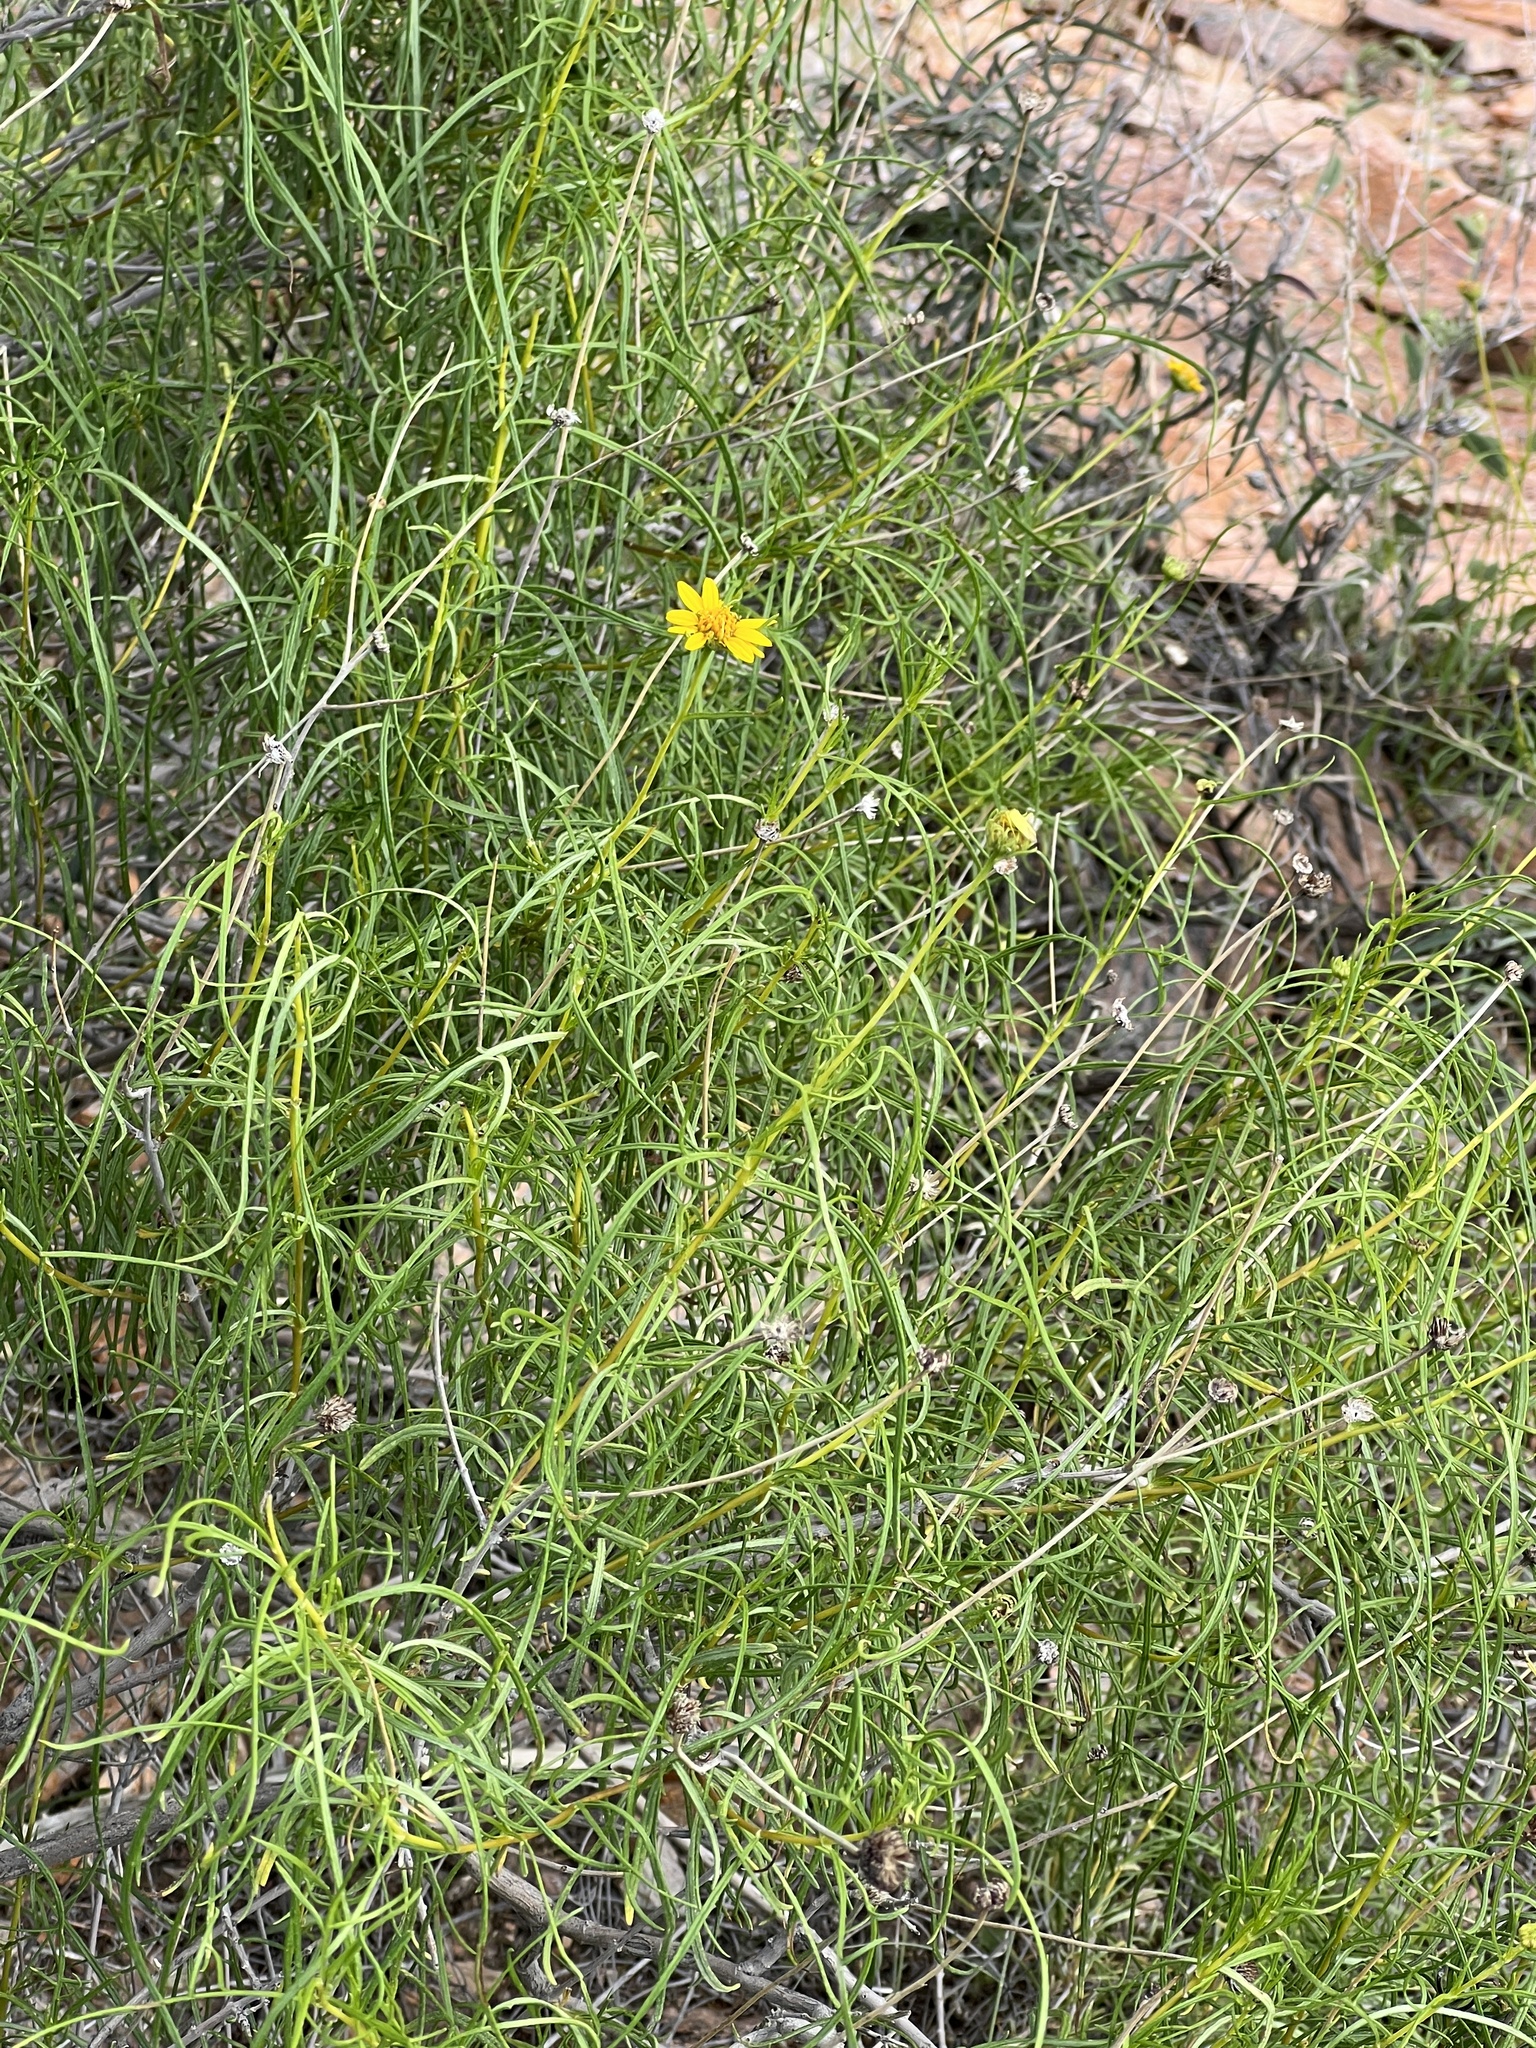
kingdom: Plantae
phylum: Tracheophyta
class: Magnoliopsida
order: Asterales
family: Asteraceae
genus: Sidneya
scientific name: Sidneya tenuifolia
